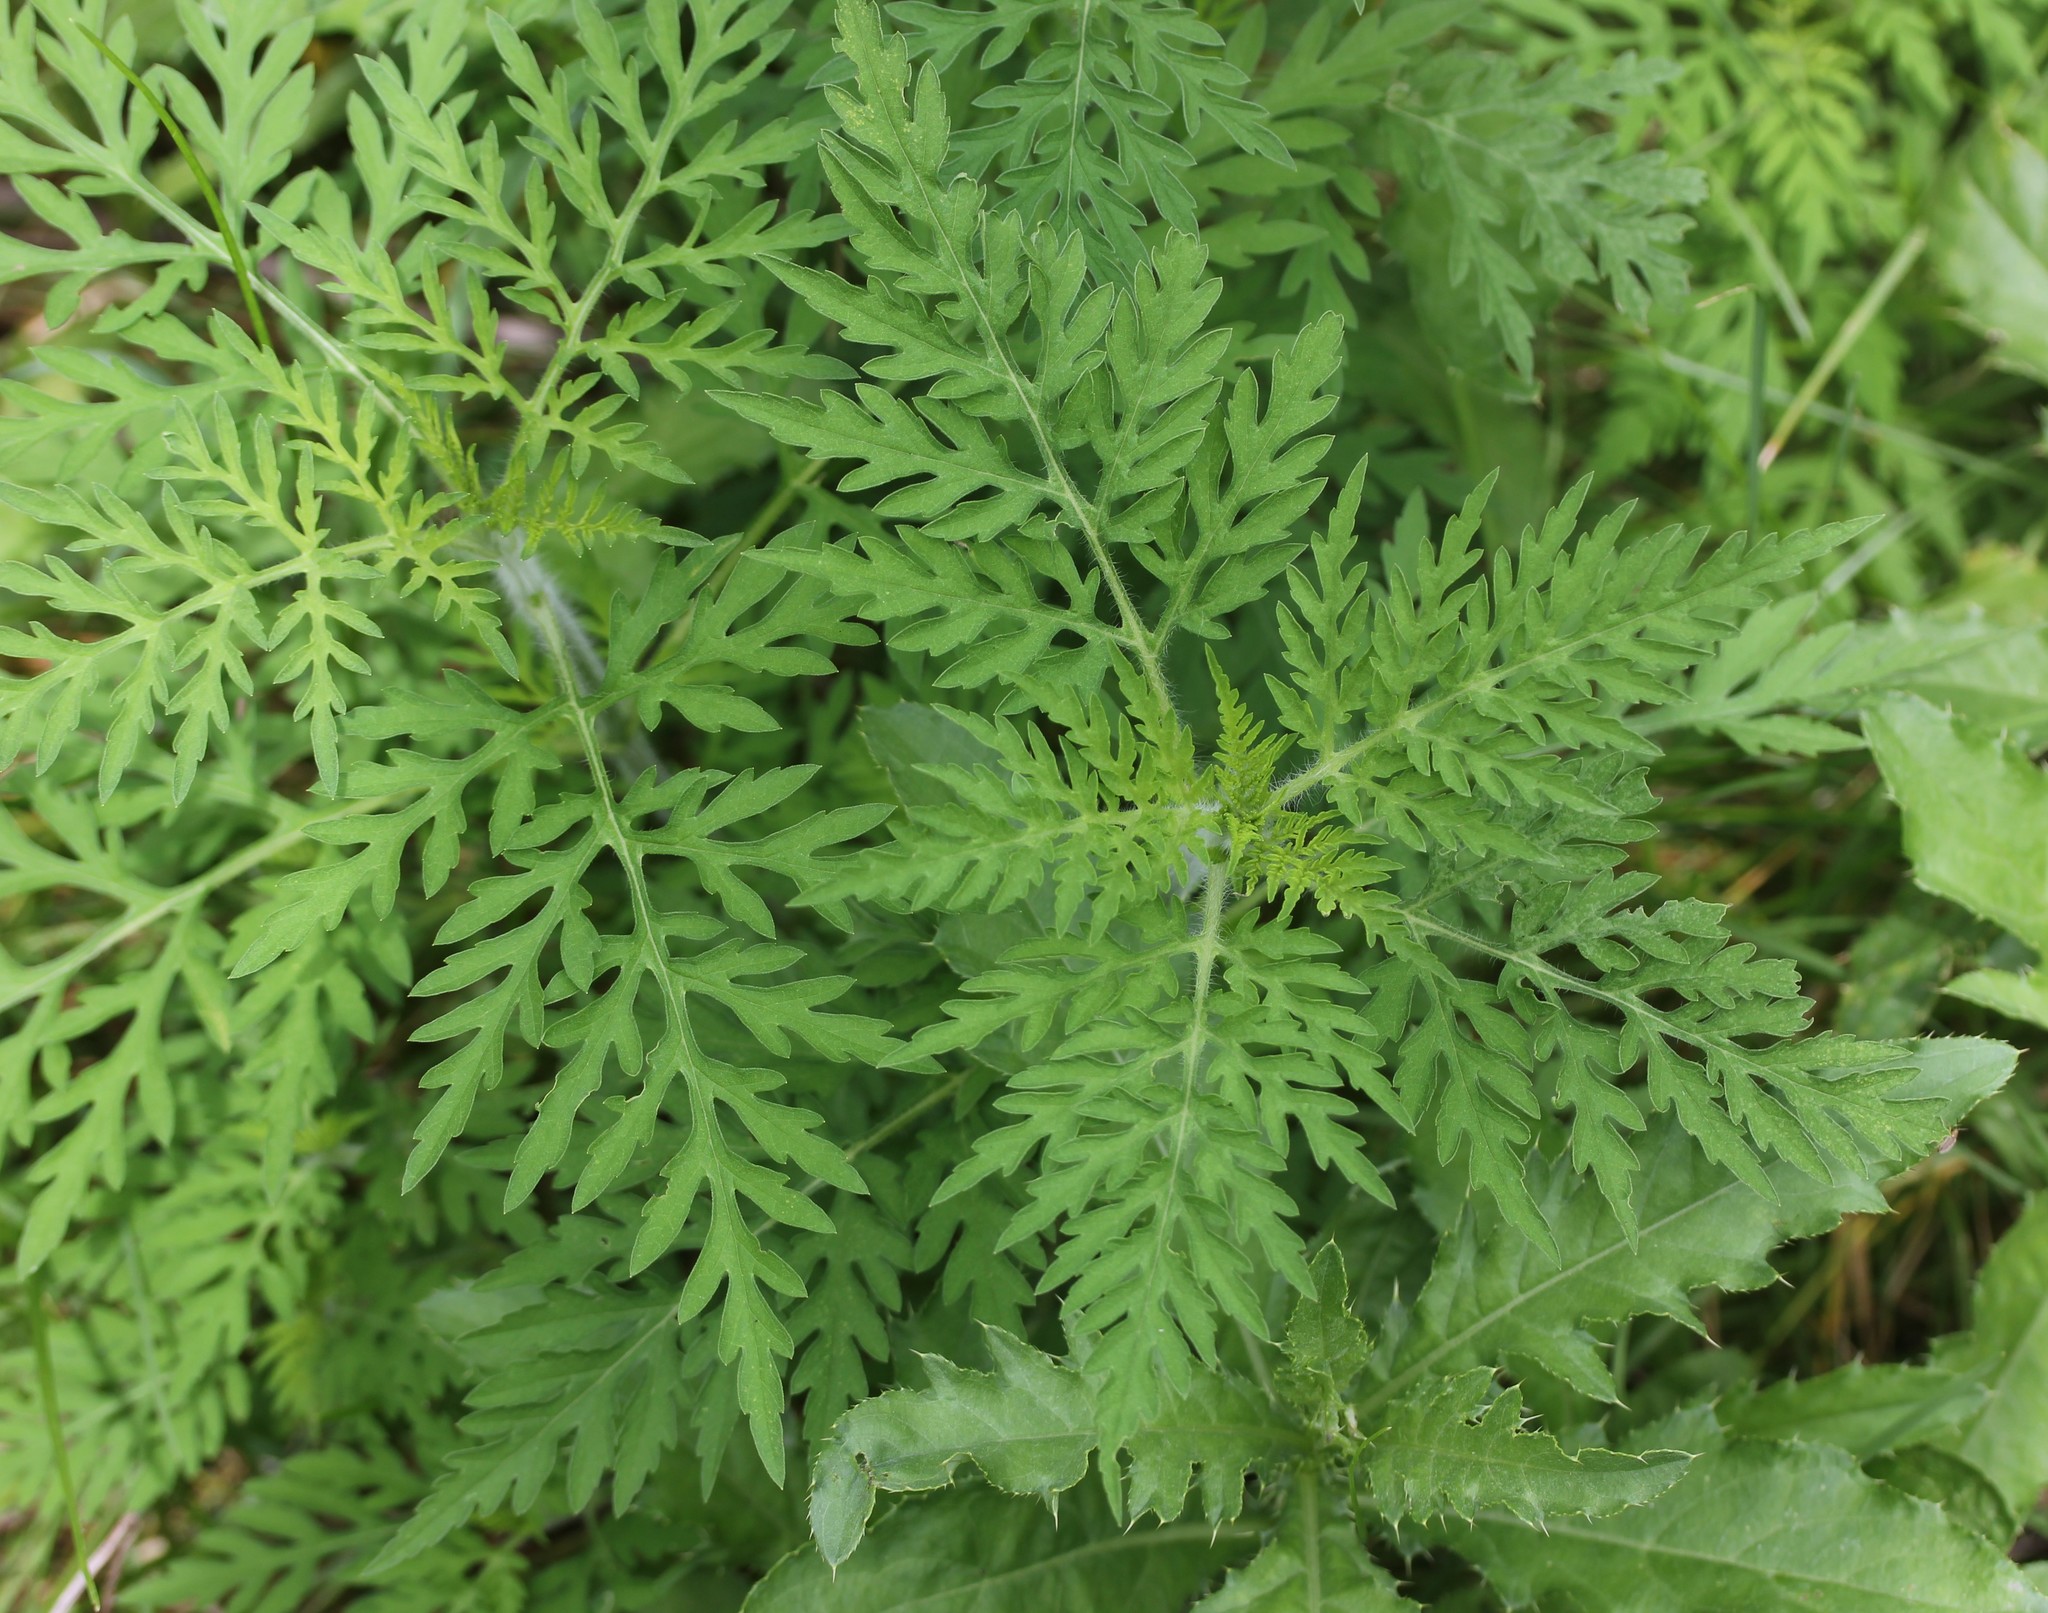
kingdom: Plantae
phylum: Tracheophyta
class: Magnoliopsida
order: Asterales
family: Asteraceae
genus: Ambrosia
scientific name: Ambrosia artemisiifolia
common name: Annual ragweed
